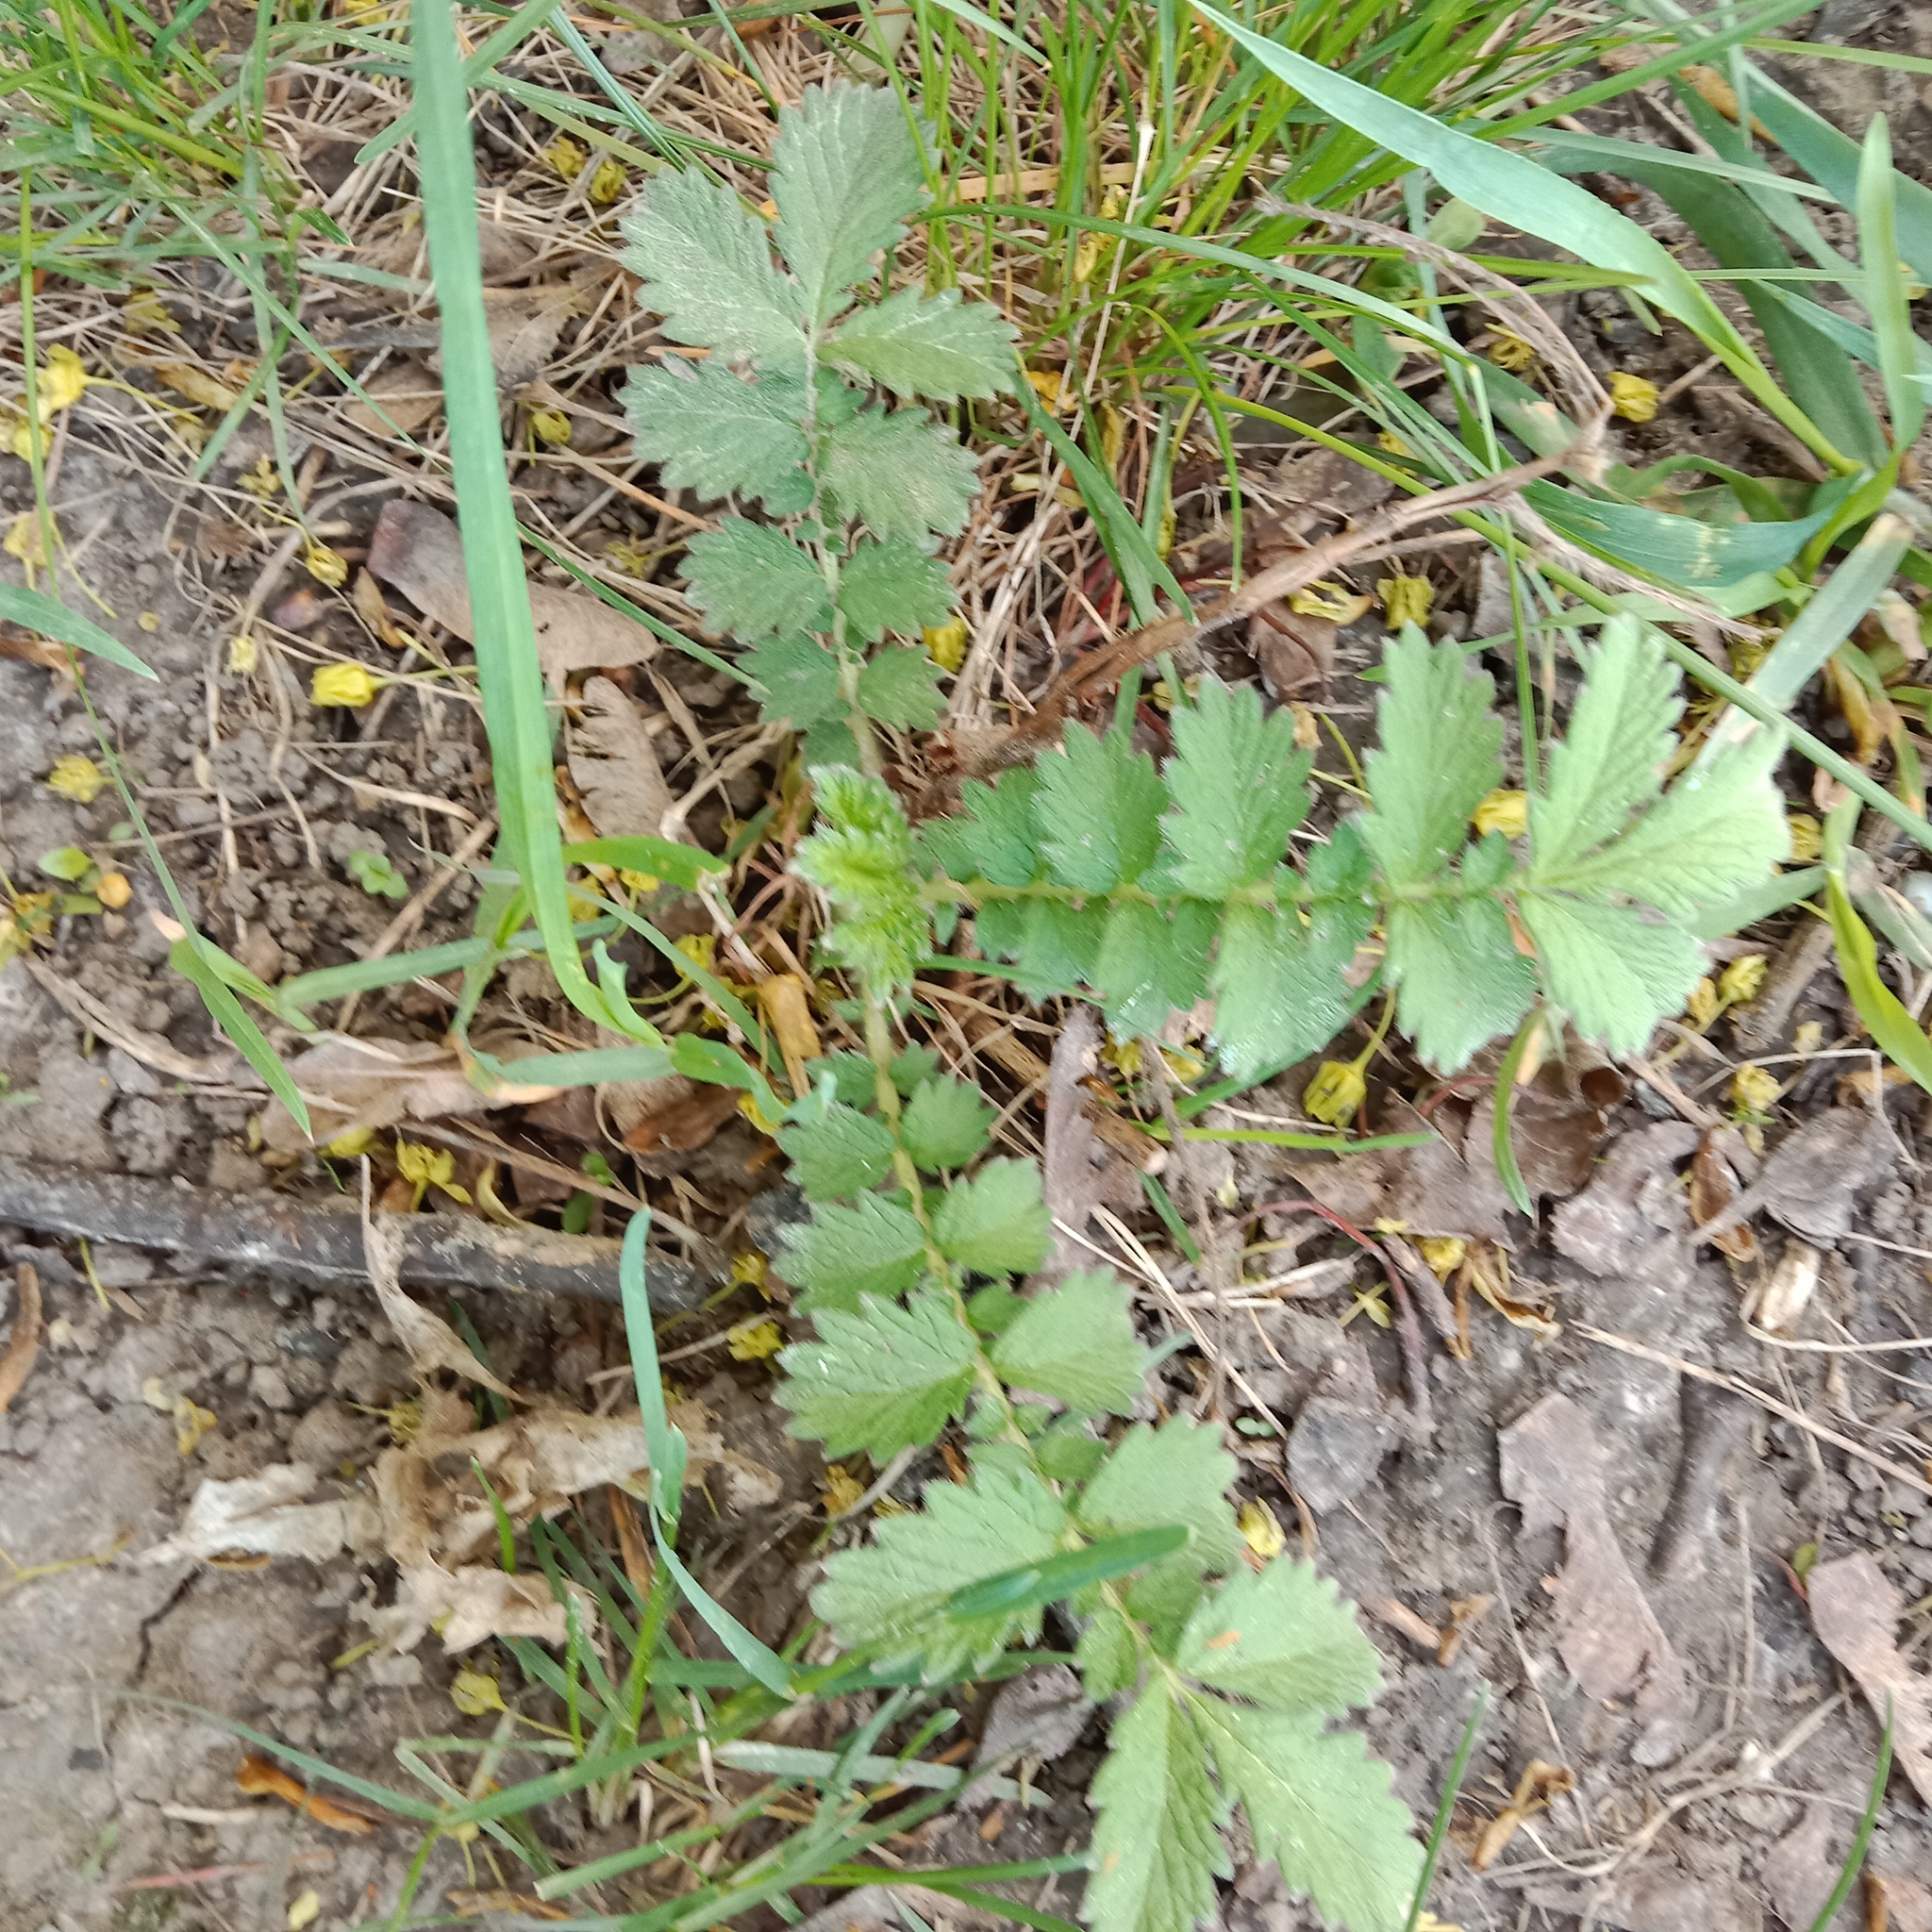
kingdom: Plantae
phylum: Tracheophyta
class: Magnoliopsida
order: Rosales
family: Rosaceae
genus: Agrimonia
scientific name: Agrimonia eupatoria
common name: Agrimony
